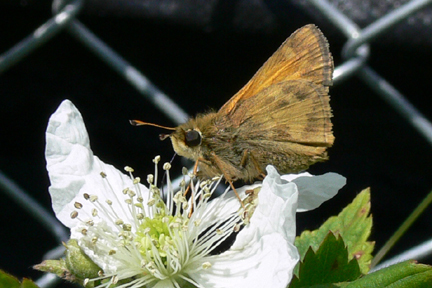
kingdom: Animalia
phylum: Arthropoda
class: Insecta
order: Lepidoptera
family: Hesperiidae
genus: Atalopedes
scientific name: Atalopedes
